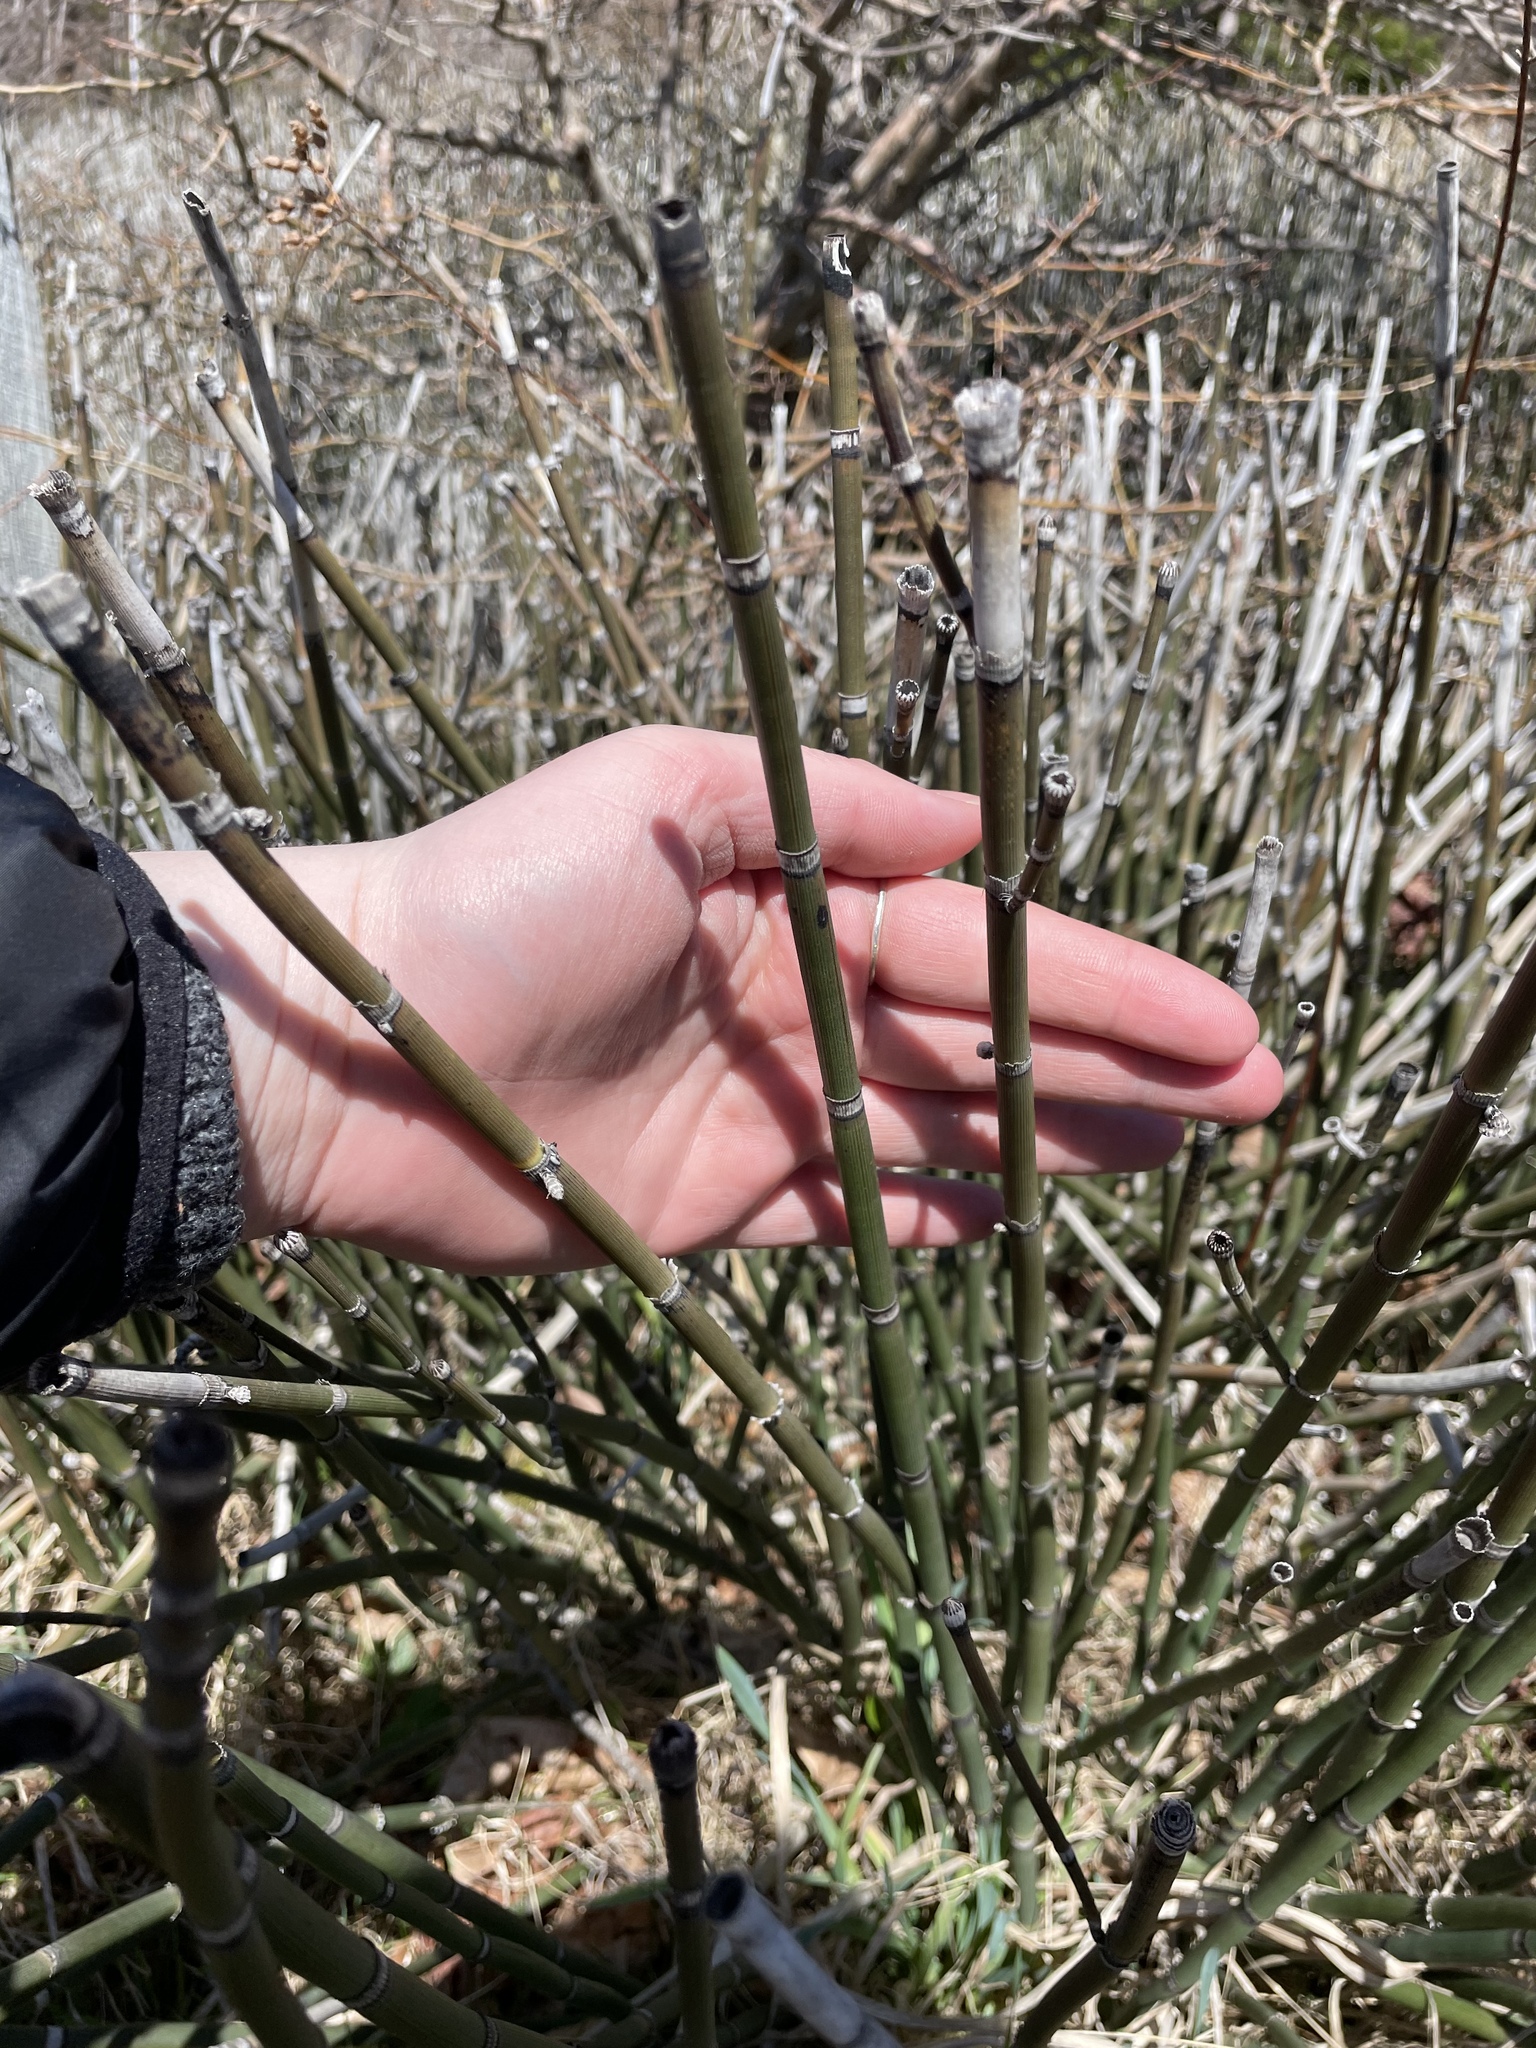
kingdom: Plantae
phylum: Tracheophyta
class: Polypodiopsida
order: Equisetales
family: Equisetaceae
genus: Equisetum
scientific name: Equisetum praealtum
